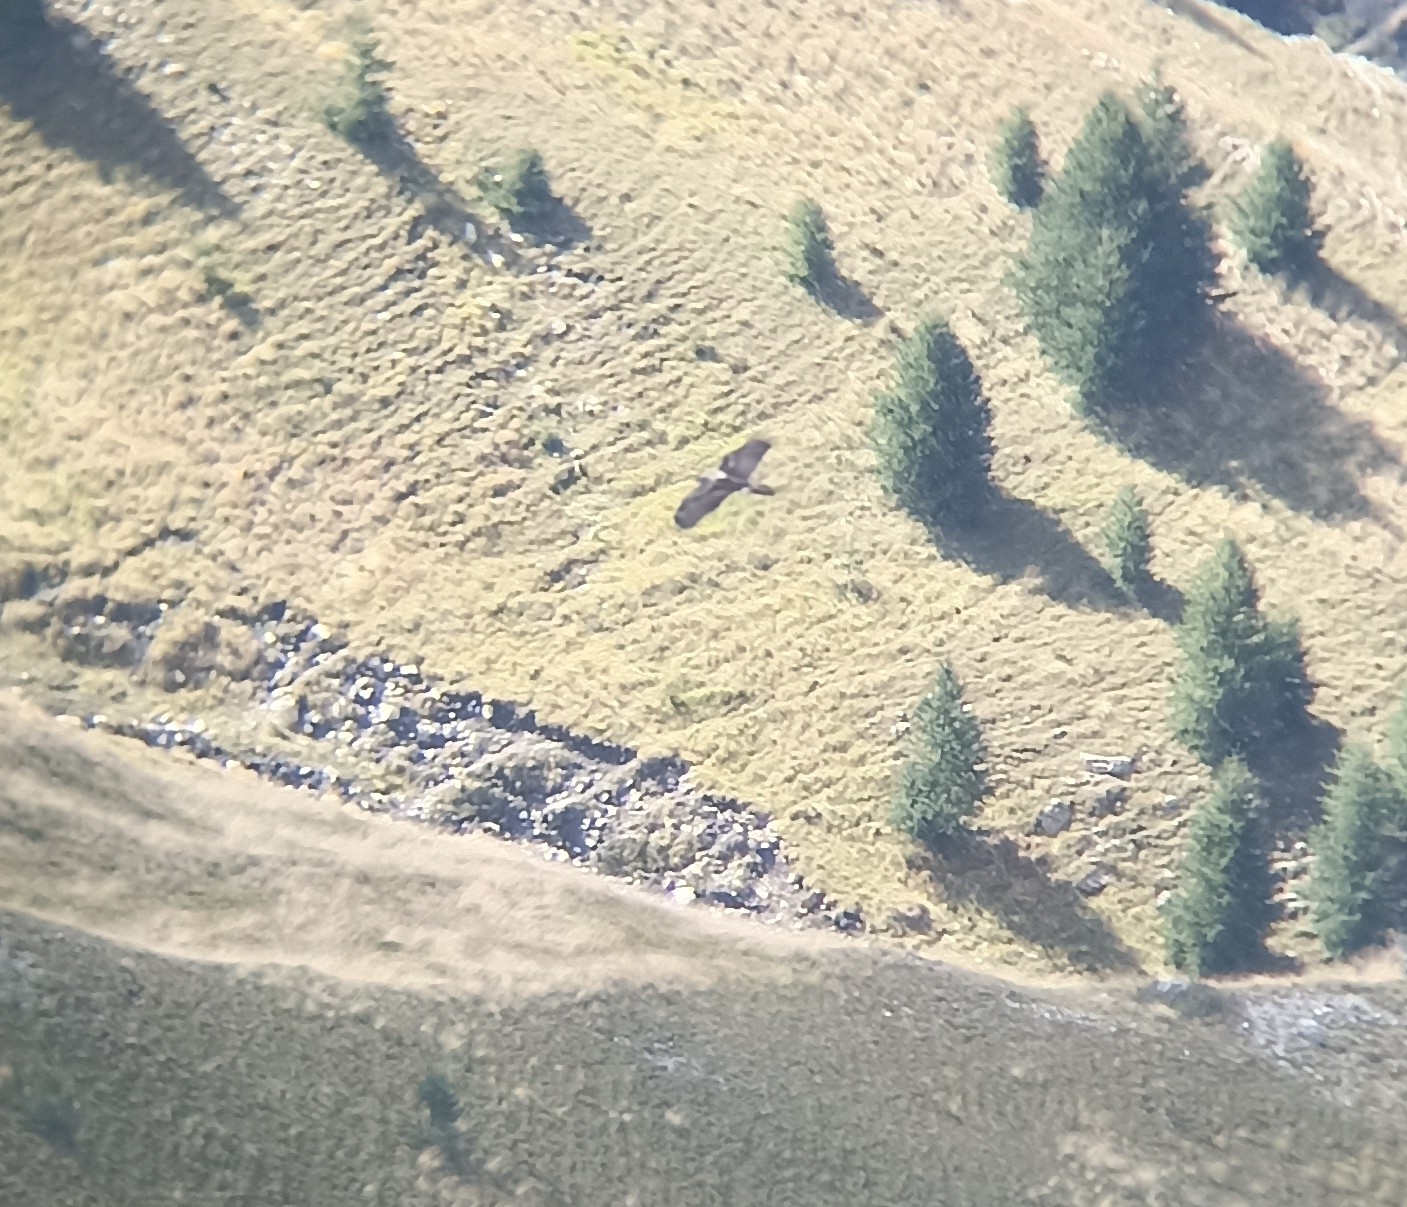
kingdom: Animalia
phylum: Chordata
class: Aves
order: Accipitriformes
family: Accipitridae
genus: Gypaetus
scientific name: Gypaetus barbatus
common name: Bearded vulture
